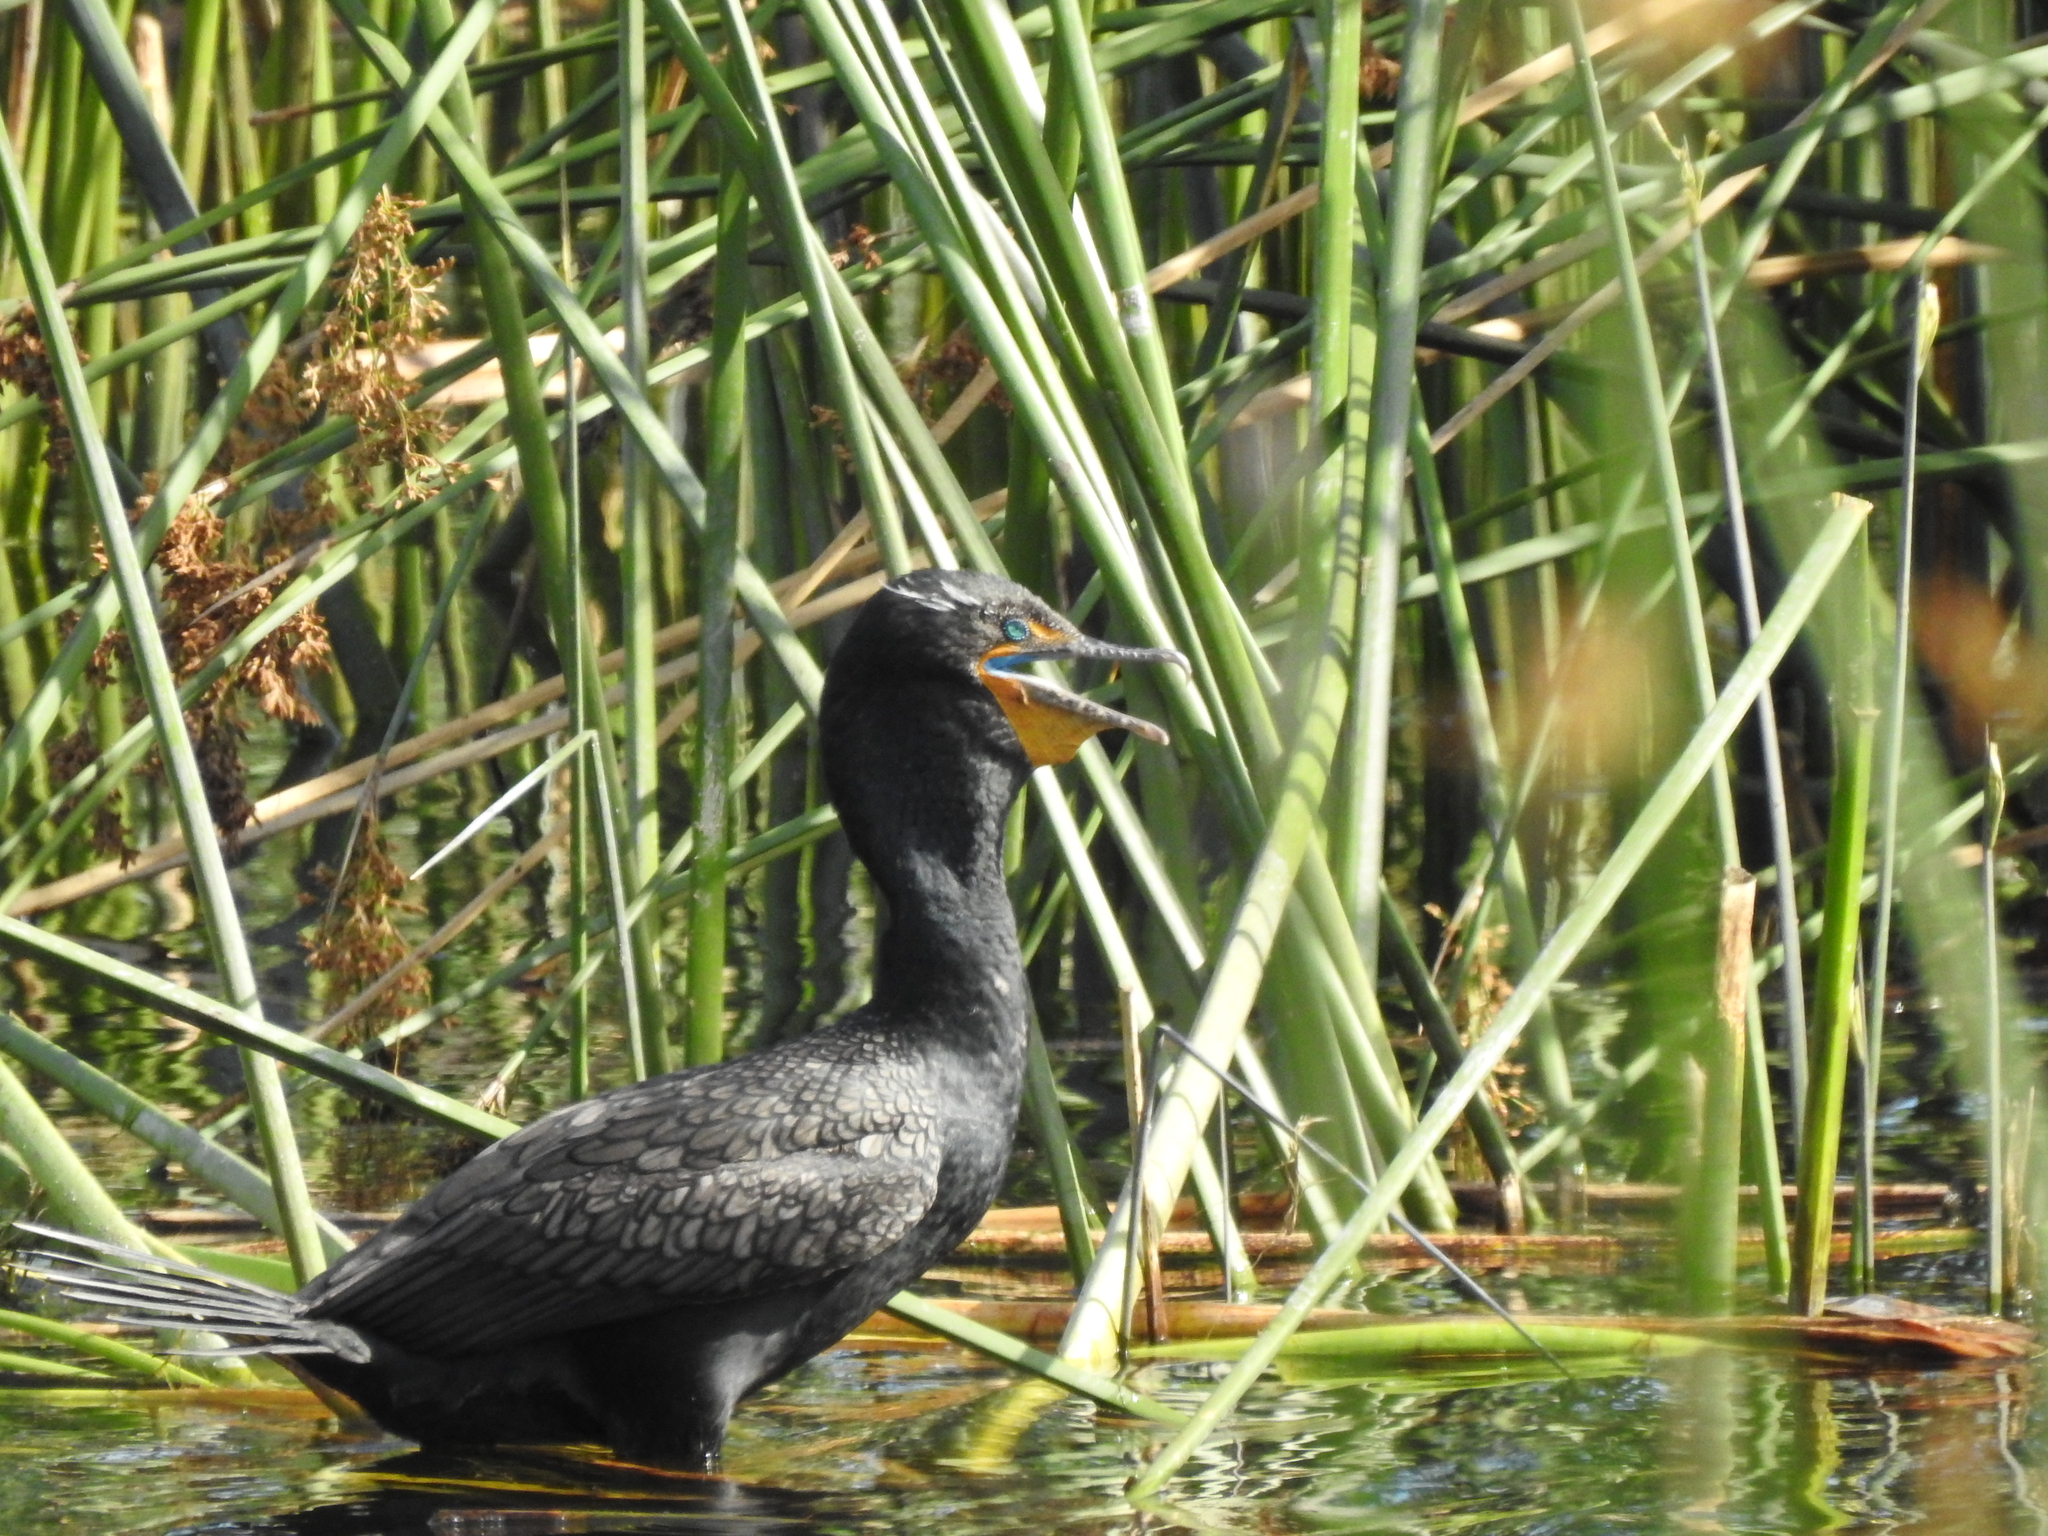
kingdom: Animalia
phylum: Chordata
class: Aves
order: Suliformes
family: Phalacrocoracidae
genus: Phalacrocorax
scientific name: Phalacrocorax auritus
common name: Double-crested cormorant
